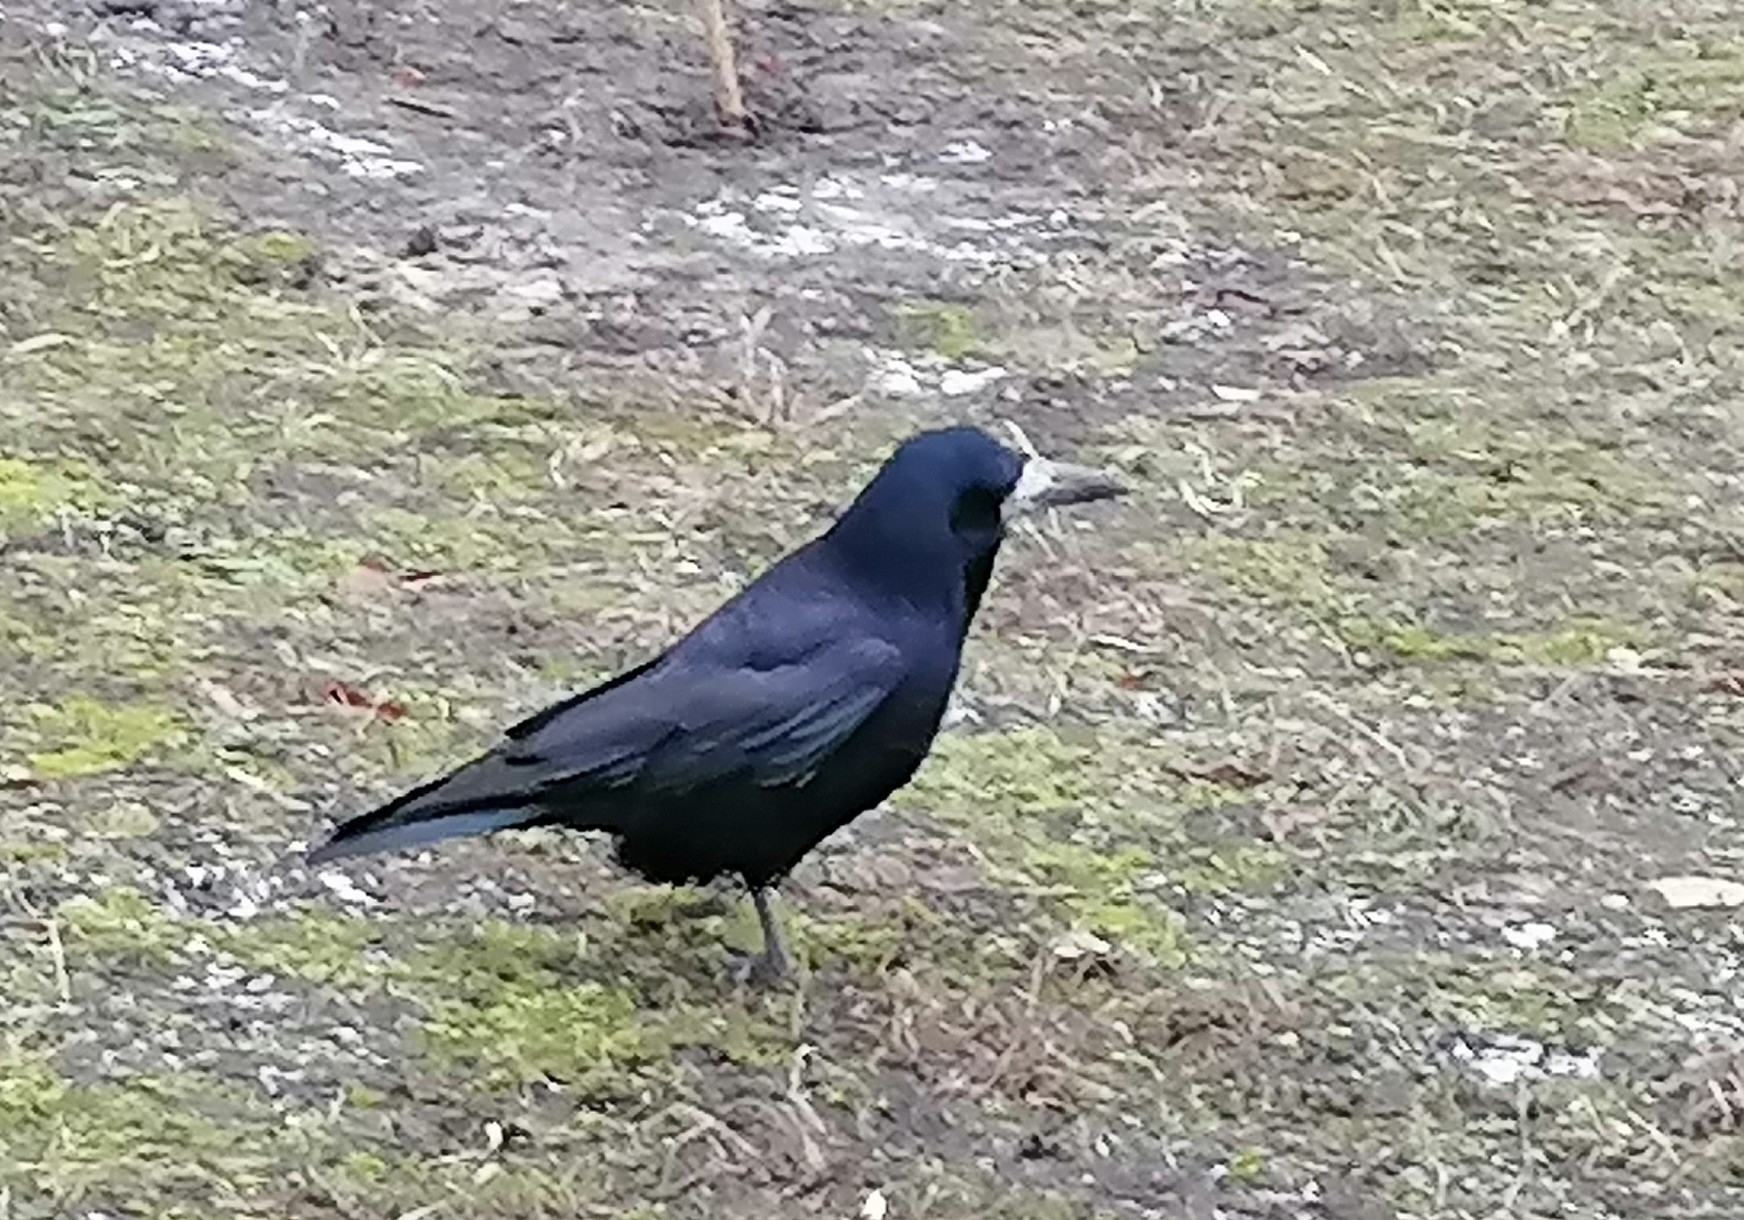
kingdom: Animalia
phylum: Chordata
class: Aves
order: Passeriformes
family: Corvidae
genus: Corvus
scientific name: Corvus frugilegus
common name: Rook
